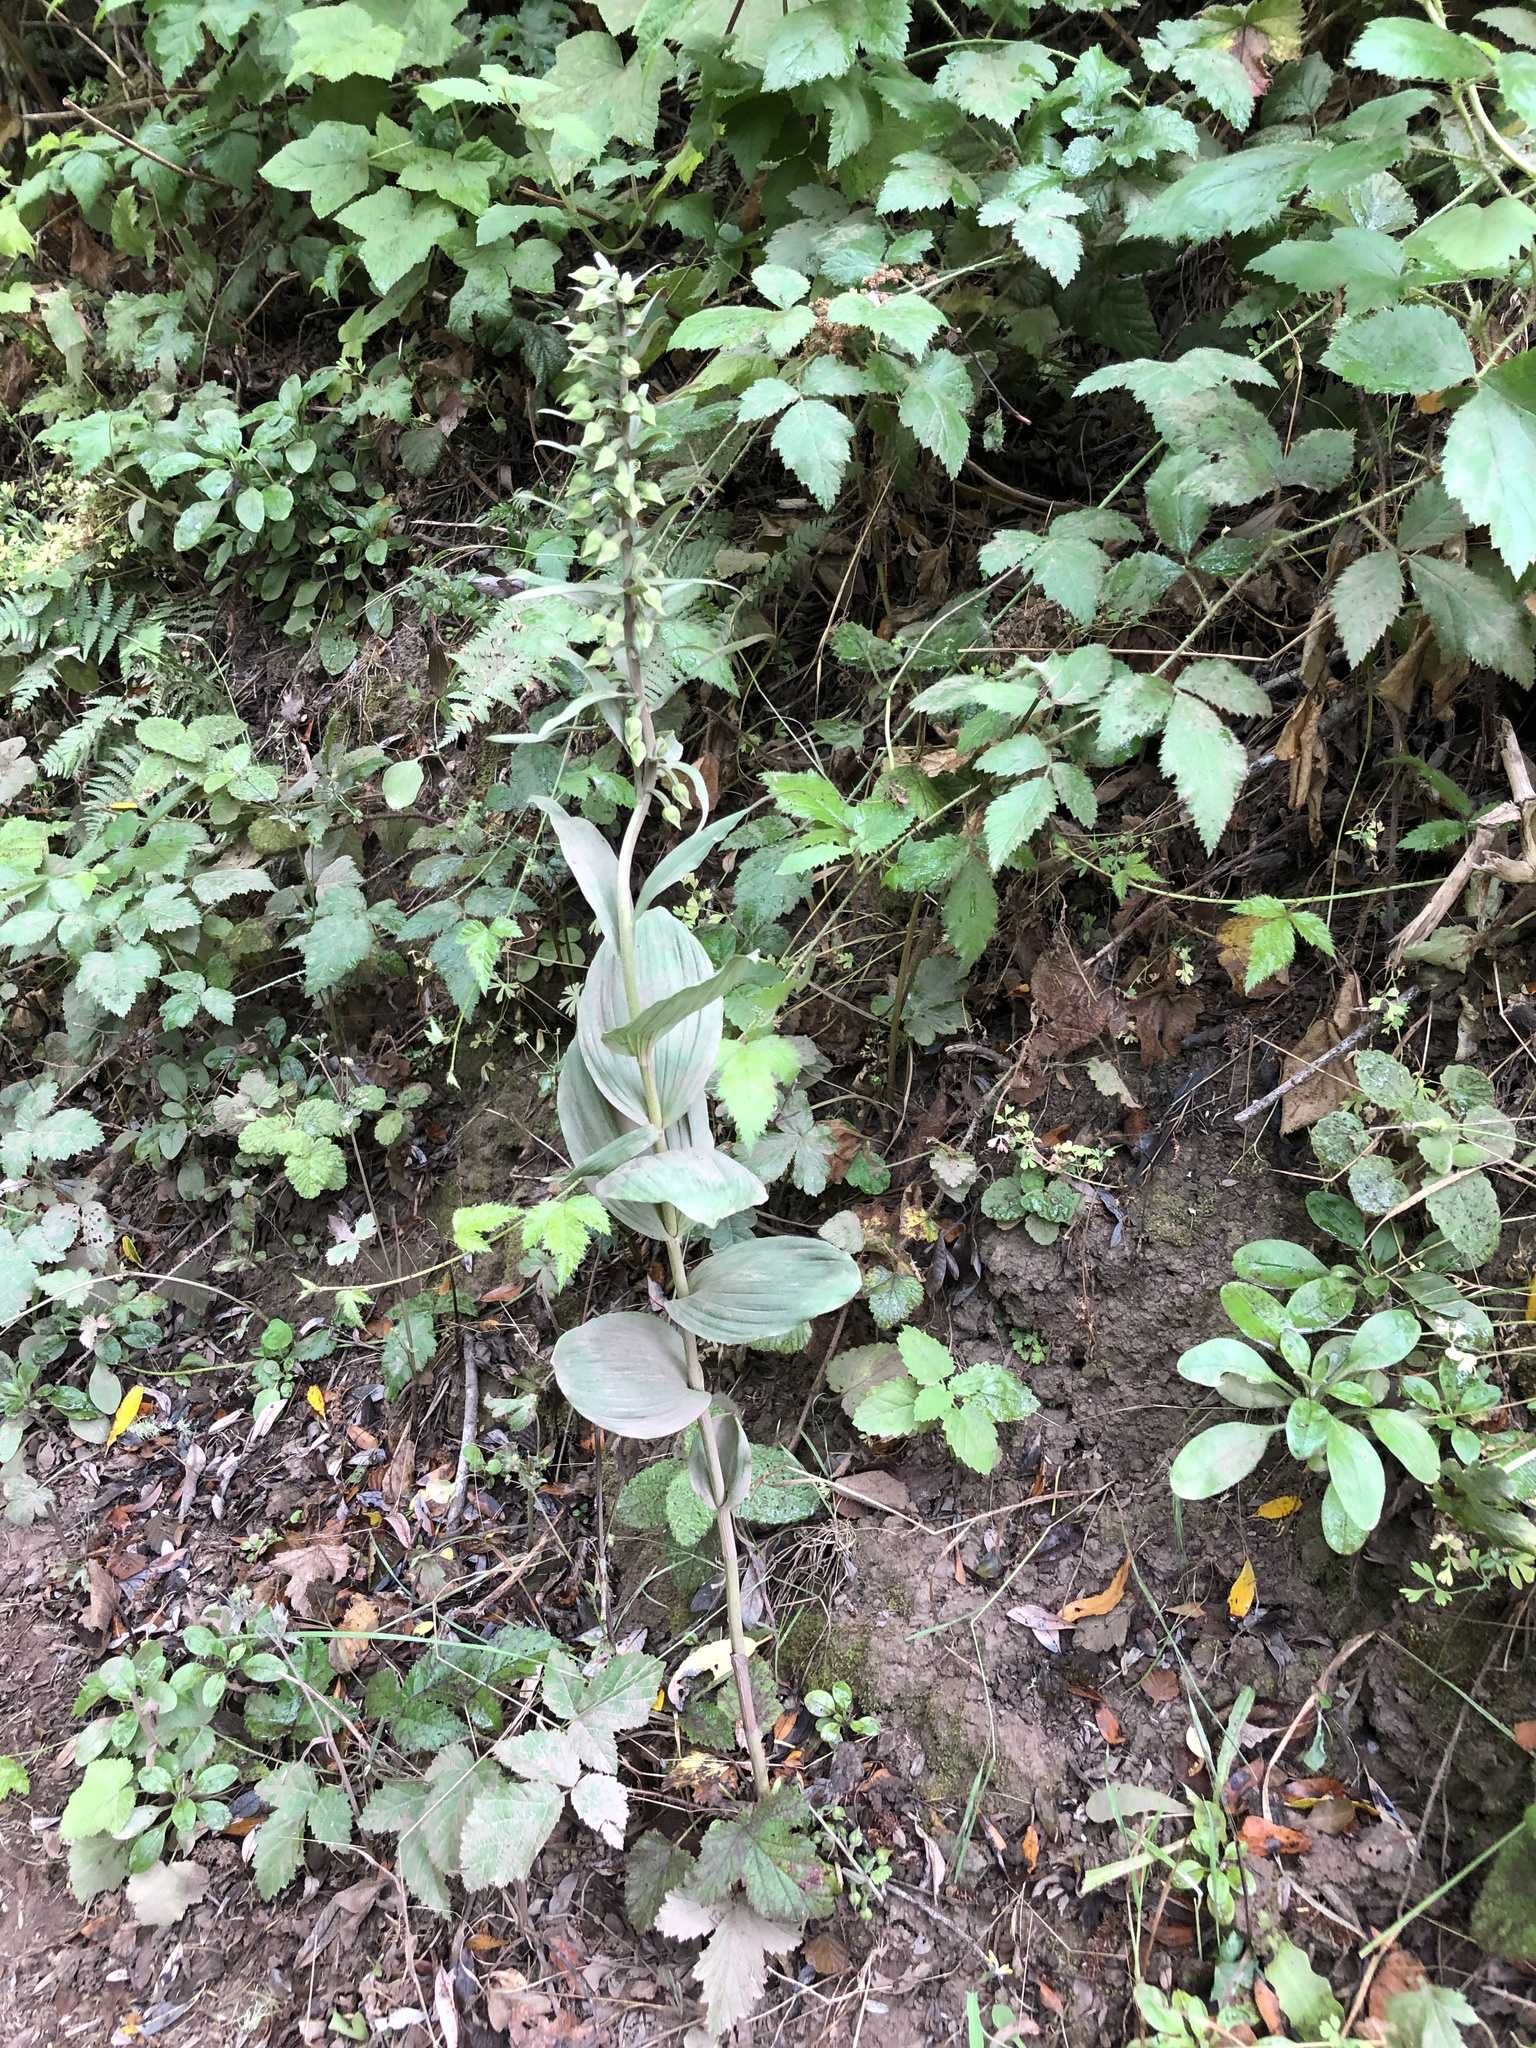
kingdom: Plantae
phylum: Tracheophyta
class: Liliopsida
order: Asparagales
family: Orchidaceae
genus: Epipactis
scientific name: Epipactis helleborine
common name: Broad-leaved helleborine
